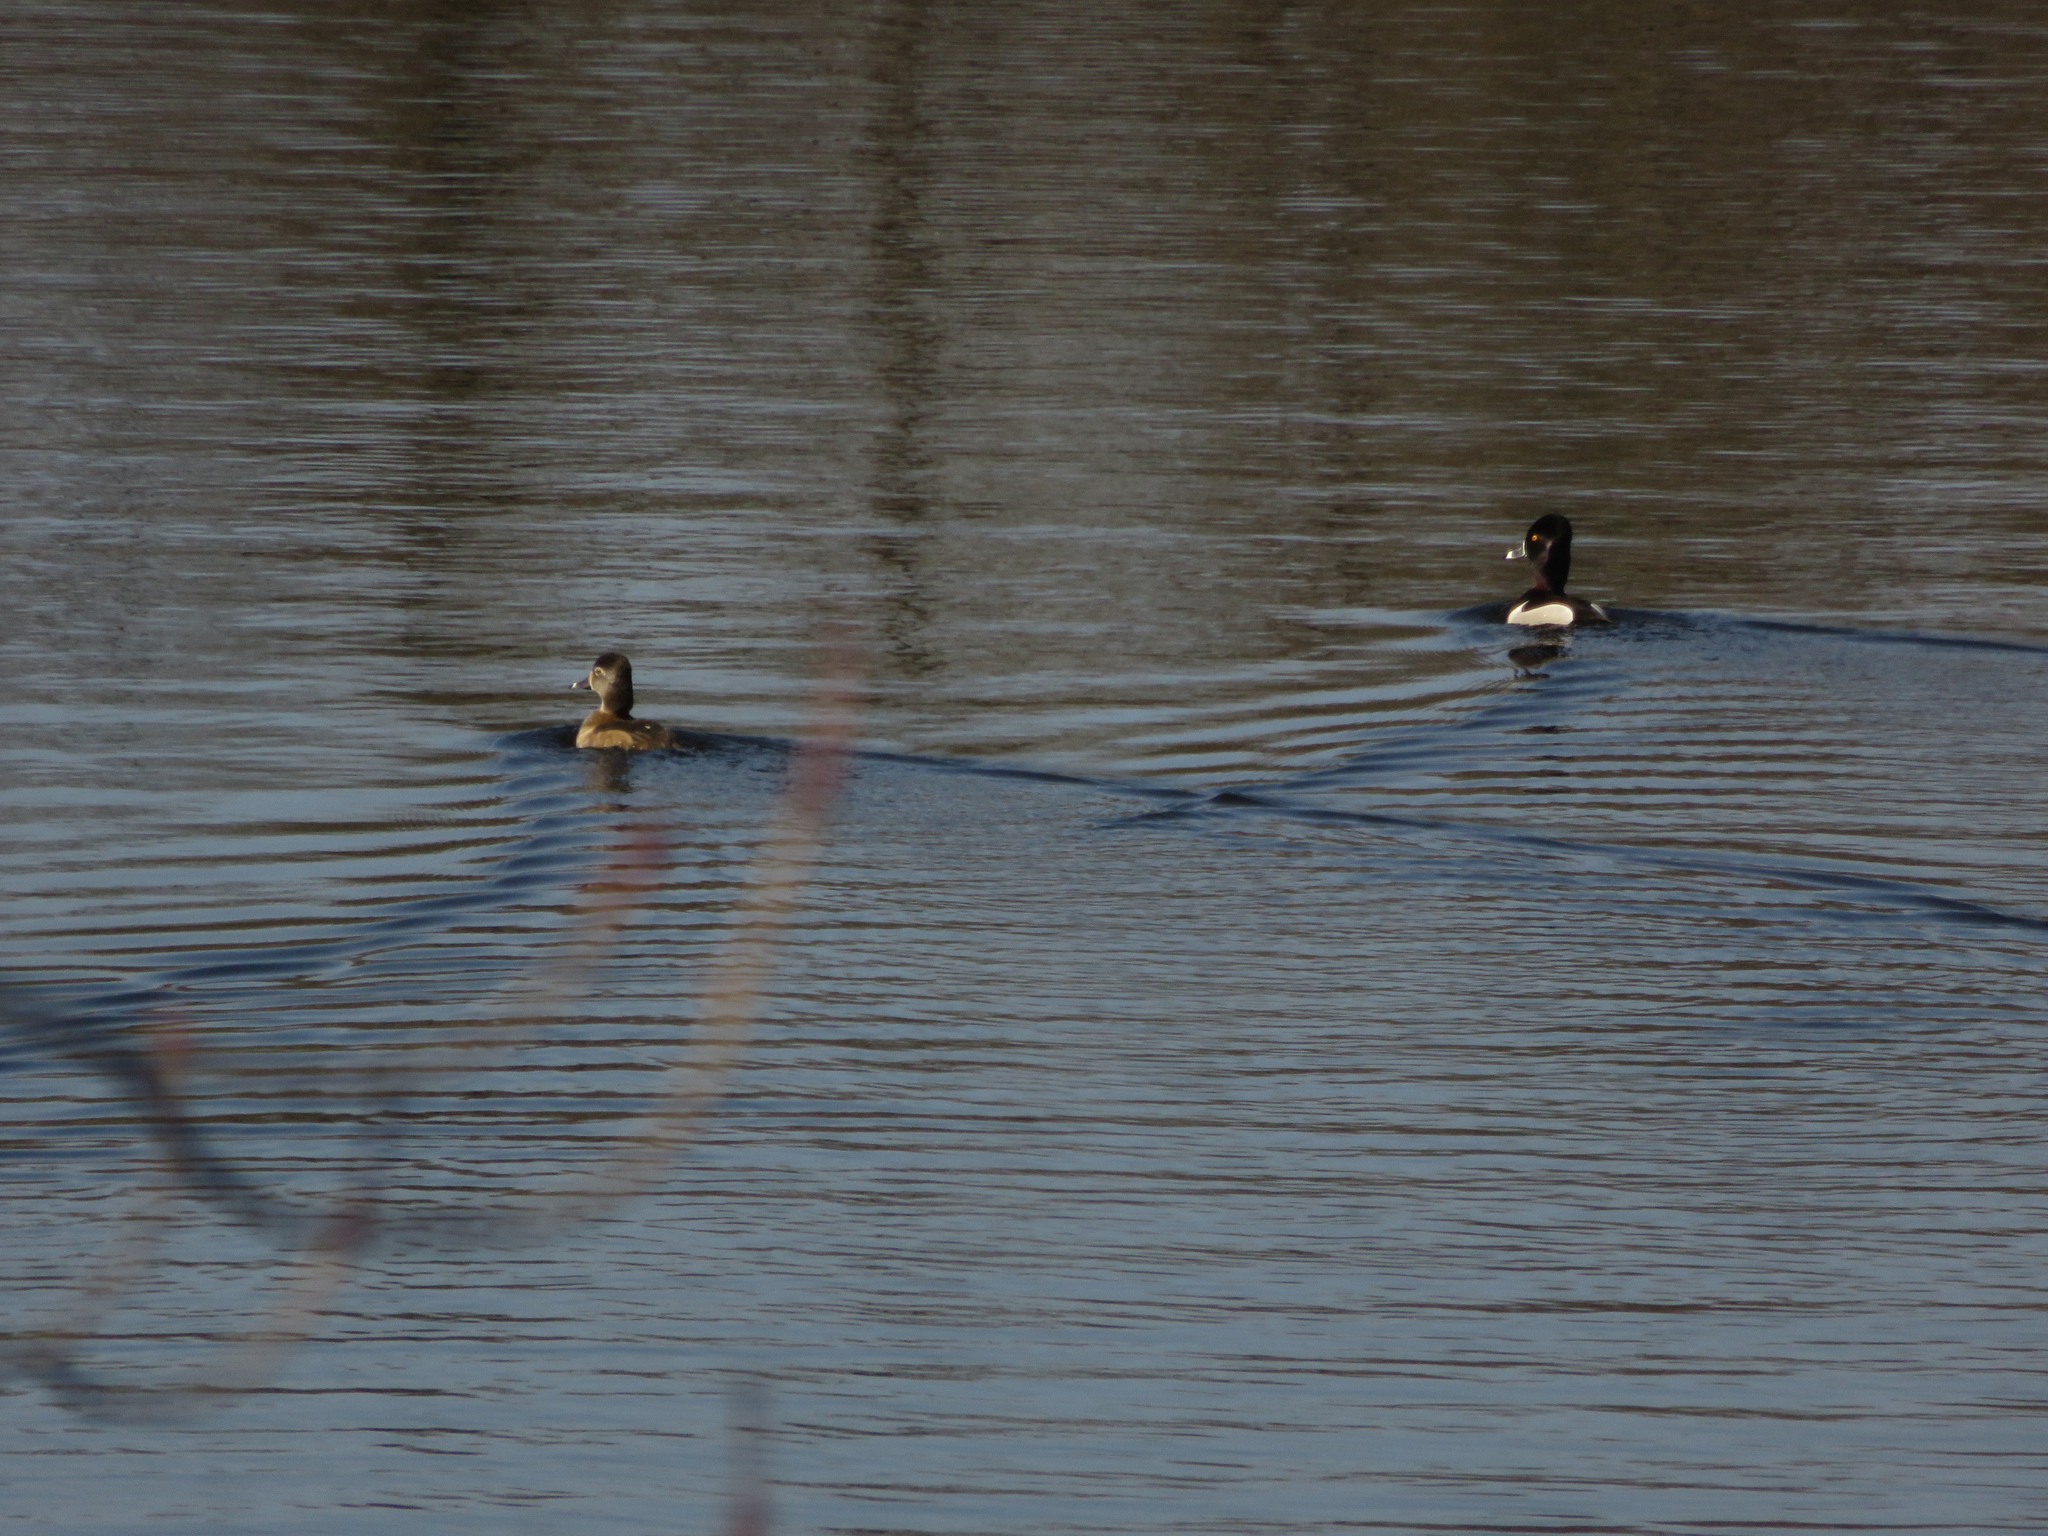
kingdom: Animalia
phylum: Chordata
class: Aves
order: Anseriformes
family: Anatidae
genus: Aythya
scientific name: Aythya collaris
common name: Ring-necked duck
